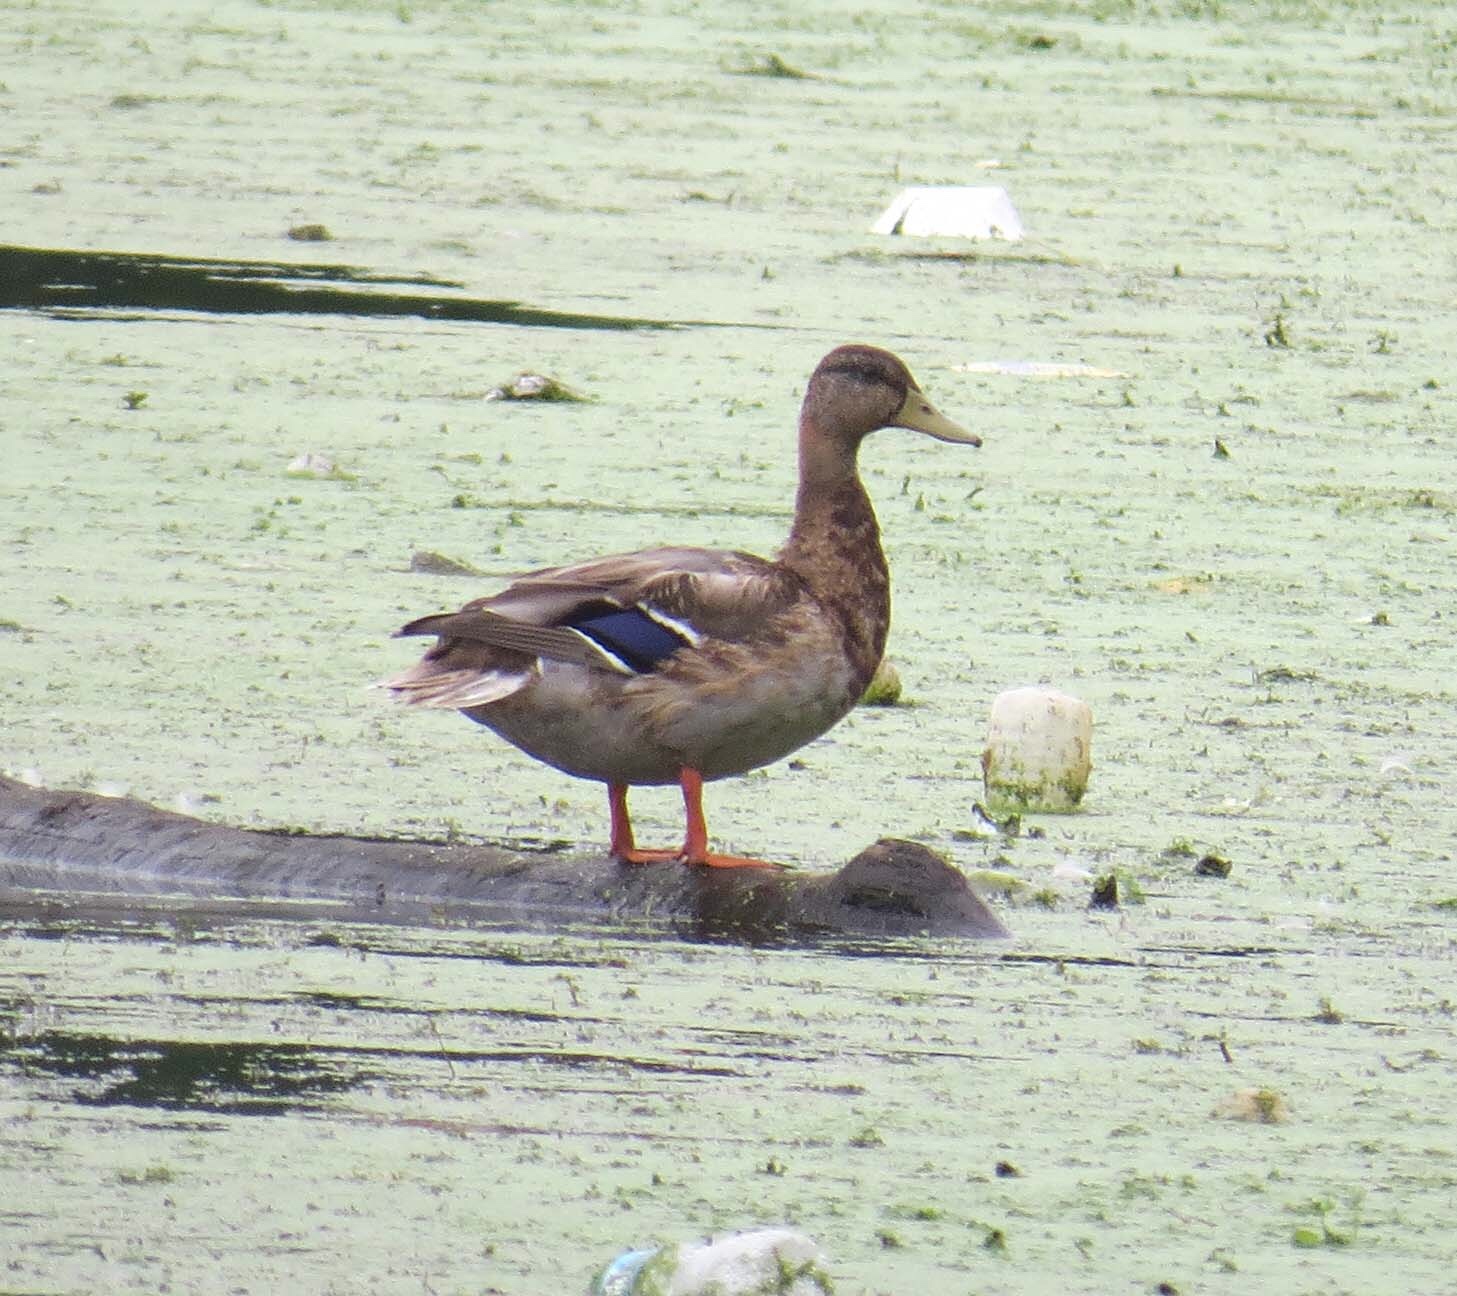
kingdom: Animalia
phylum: Chordata
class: Aves
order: Anseriformes
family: Anatidae
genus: Anas
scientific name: Anas platyrhynchos
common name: Mallard
